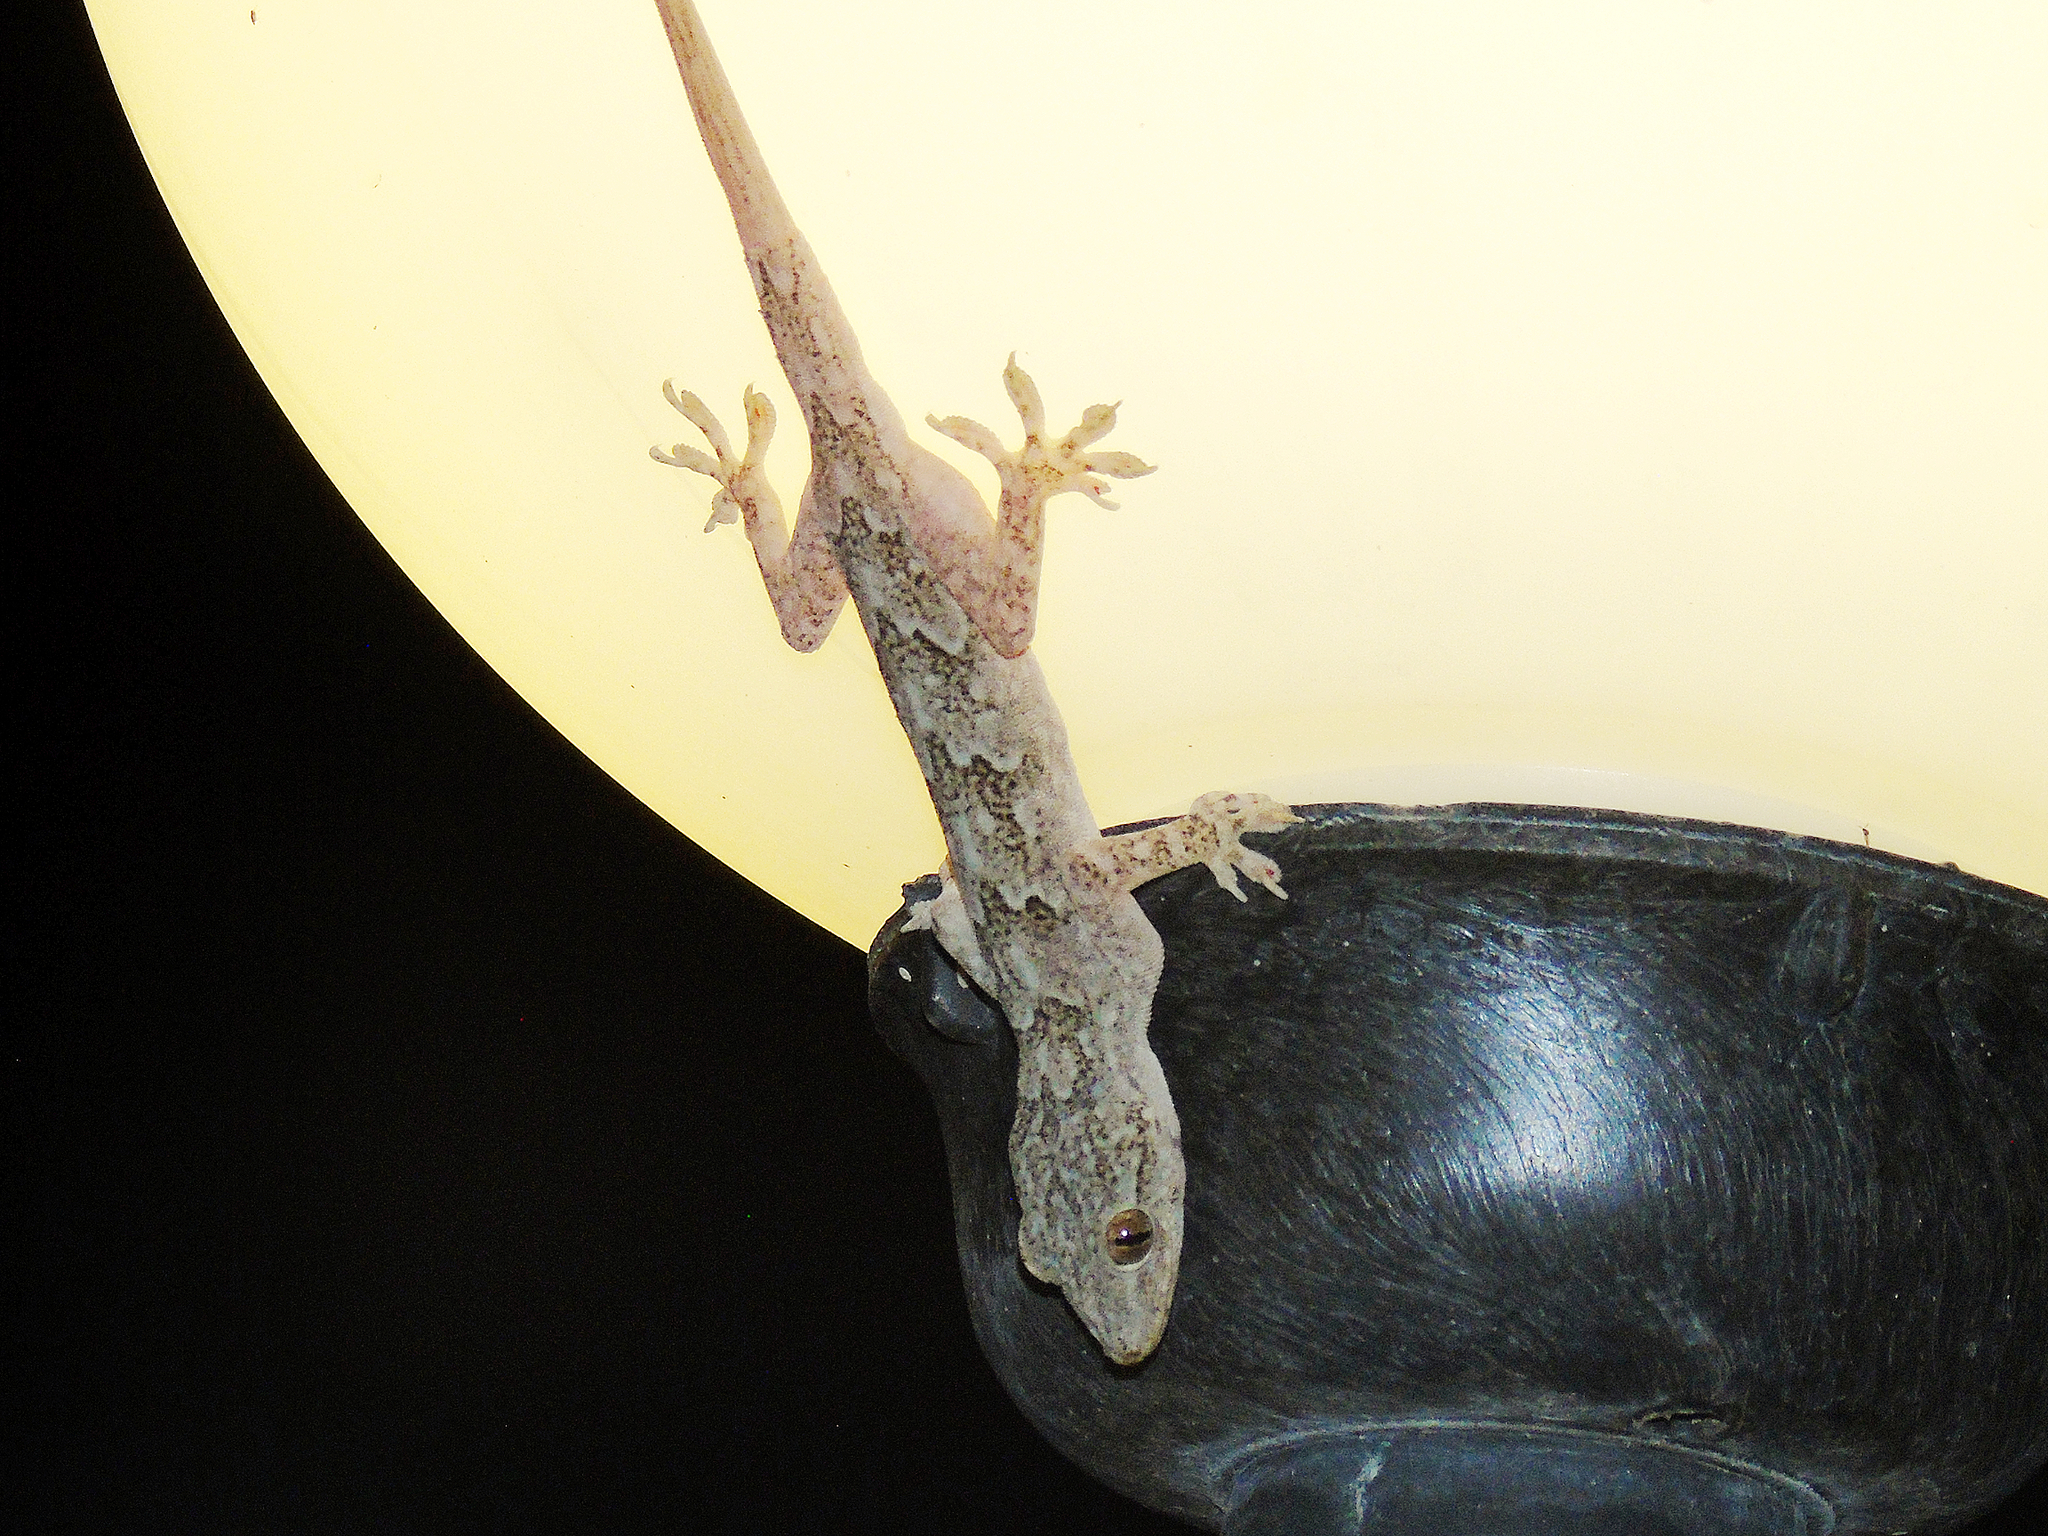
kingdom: Animalia
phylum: Chordata
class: Squamata
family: Gekkonidae
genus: Hemidactylus
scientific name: Hemidactylus flaviviridis
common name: Northern house gecko
